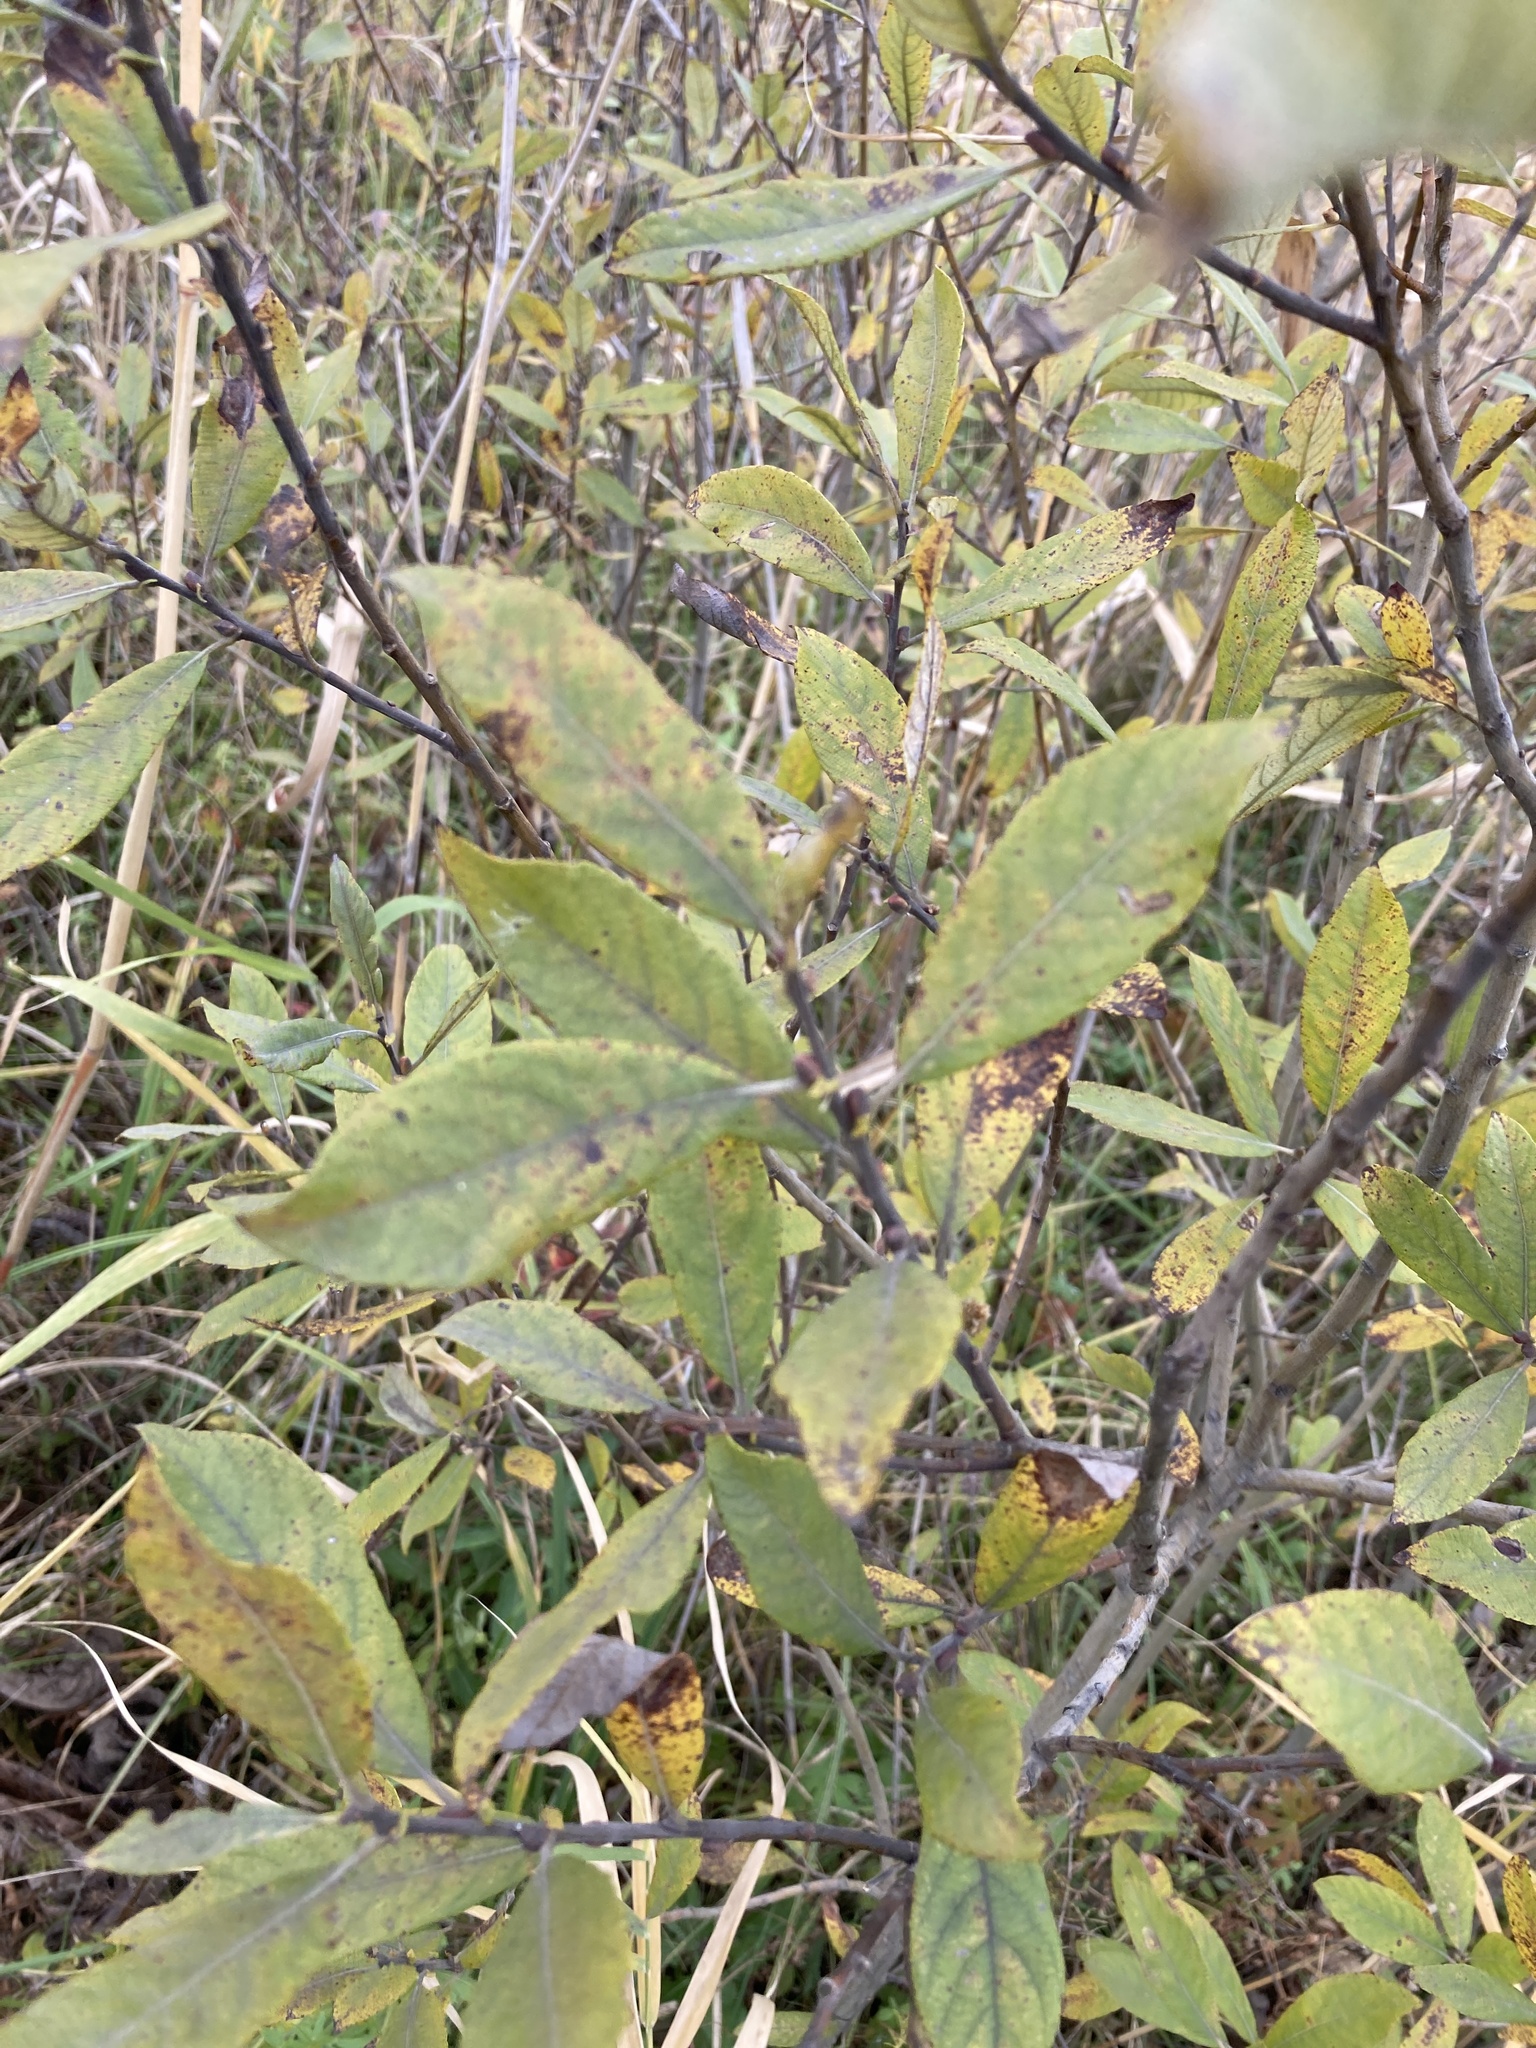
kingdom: Plantae
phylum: Tracheophyta
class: Magnoliopsida
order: Malpighiales
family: Salicaceae
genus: Salix
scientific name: Salix cinerea
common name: Common sallow
